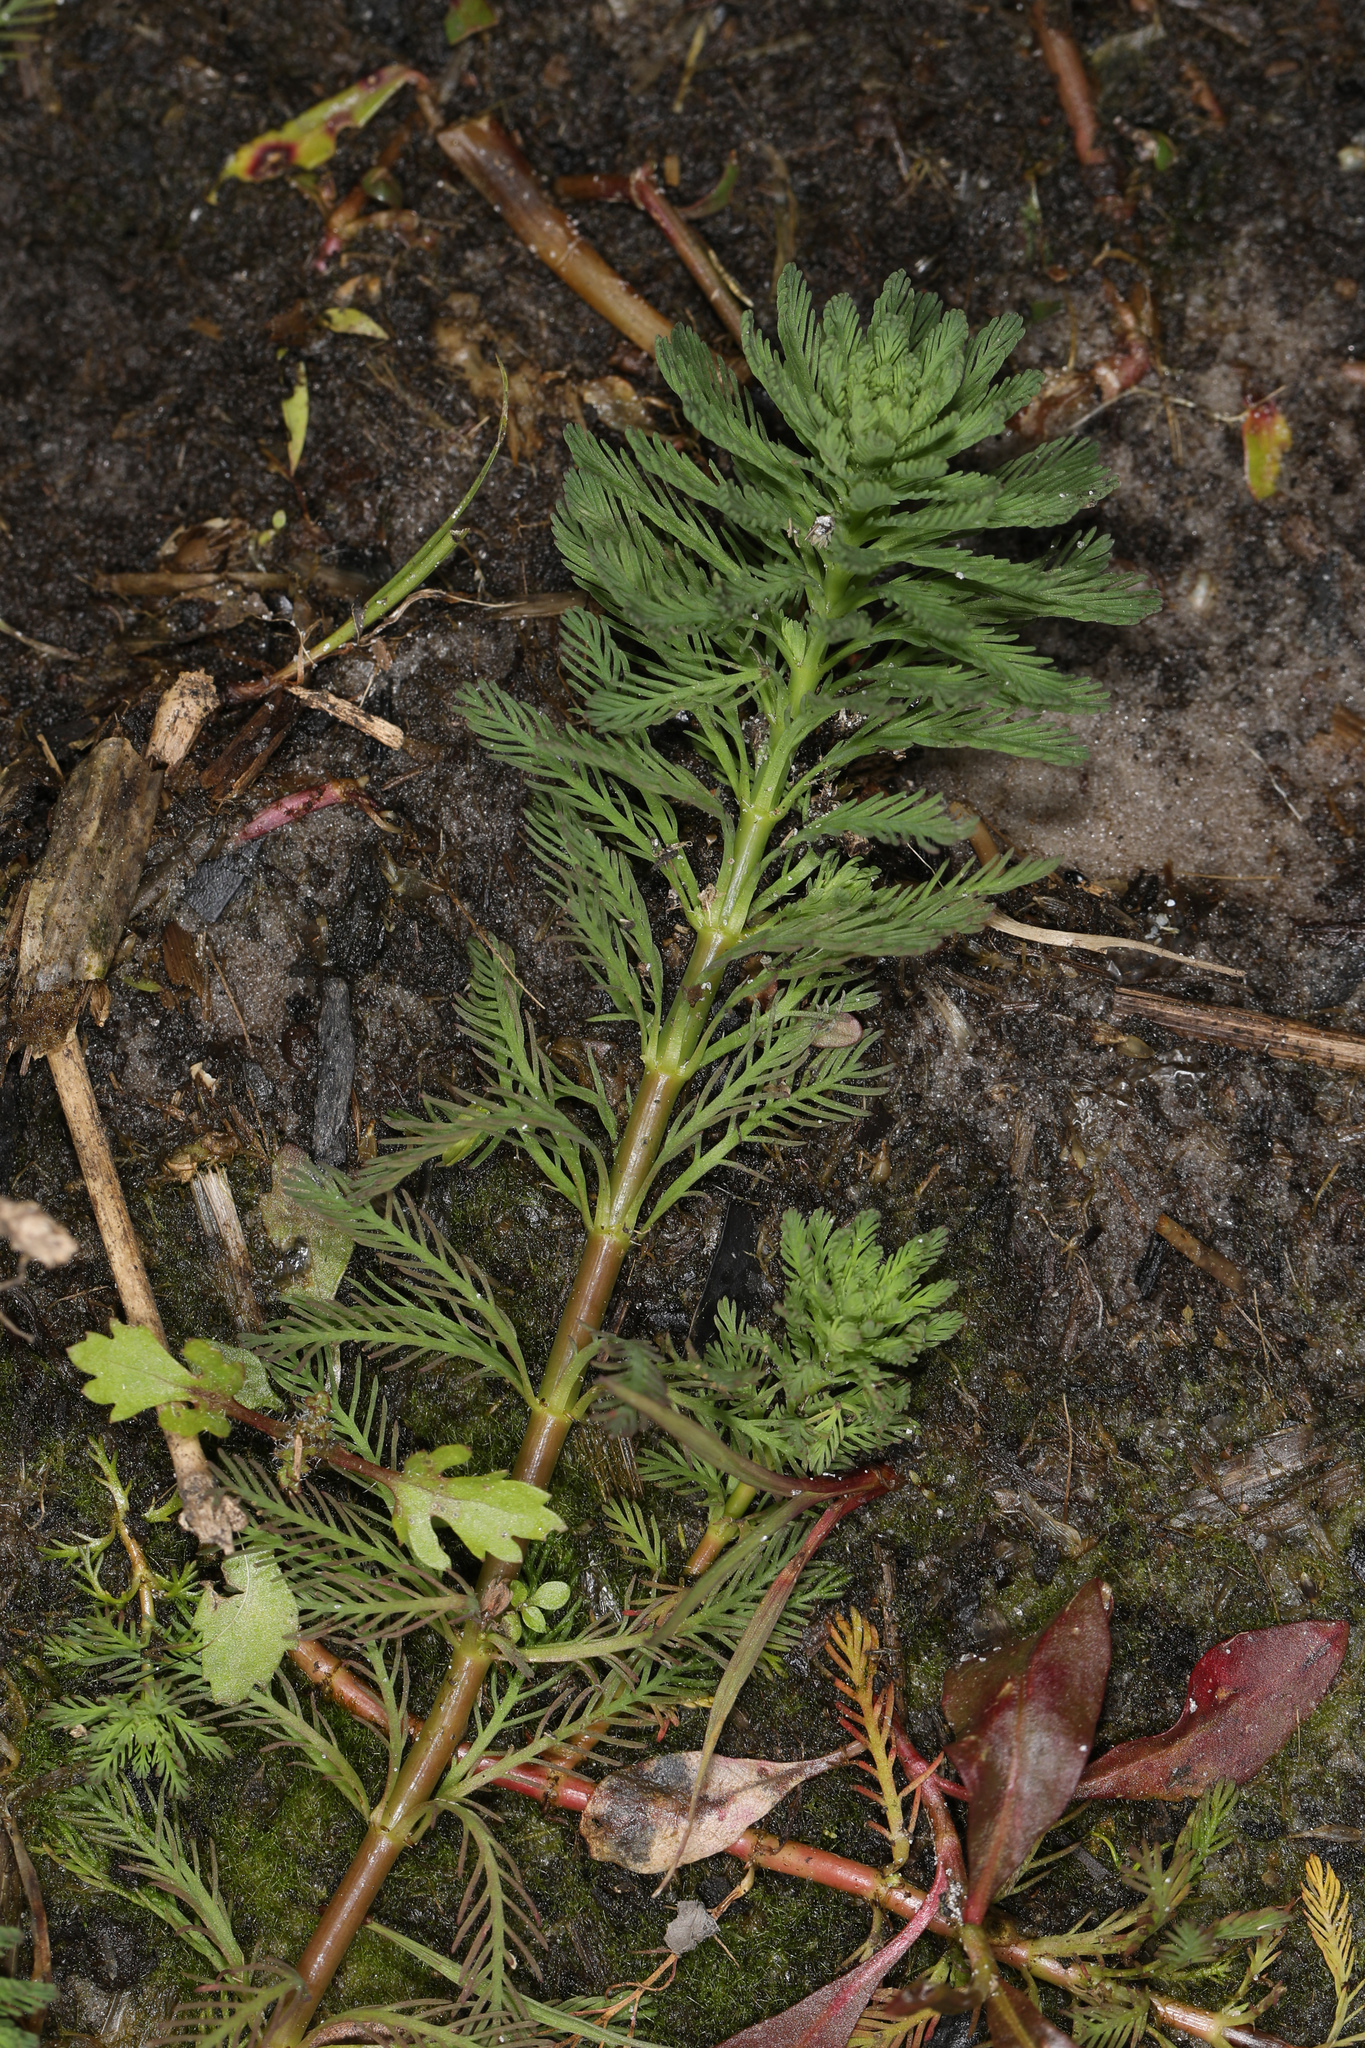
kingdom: Plantae
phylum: Tracheophyta
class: Magnoliopsida
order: Saxifragales
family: Haloragaceae
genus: Myriophyllum
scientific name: Myriophyllum aquaticum
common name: Parrot's feather
